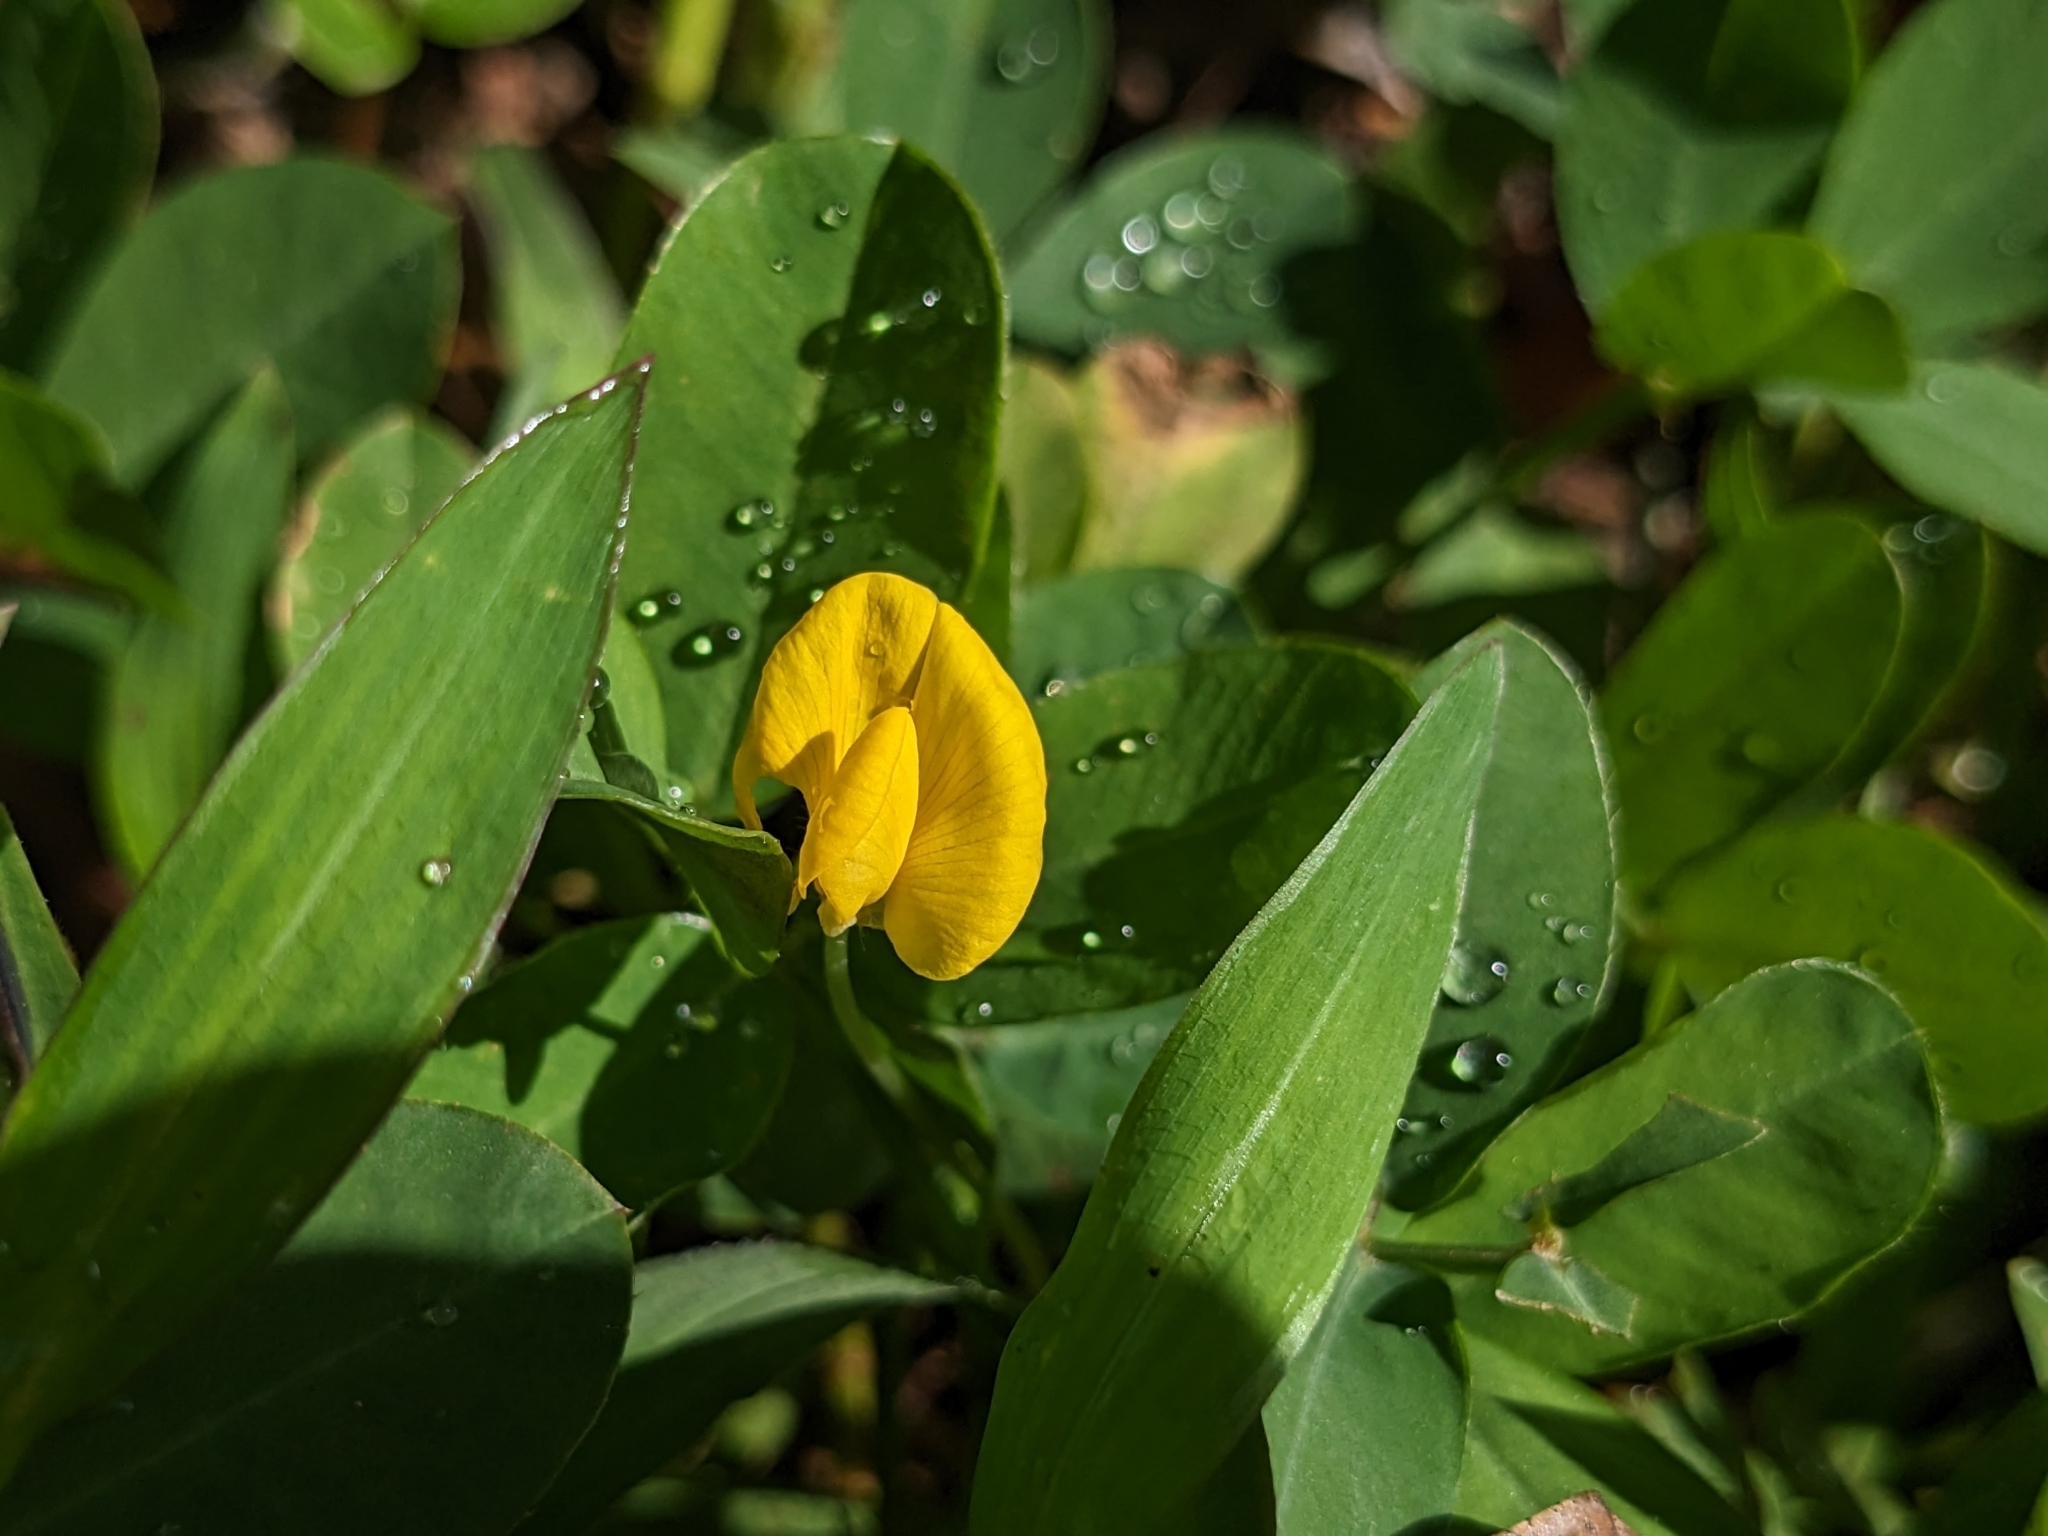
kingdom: Plantae
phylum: Tracheophyta
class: Magnoliopsida
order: Fabales
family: Fabaceae
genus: Arachis
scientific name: Arachis pintoi
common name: Pinto peanut
